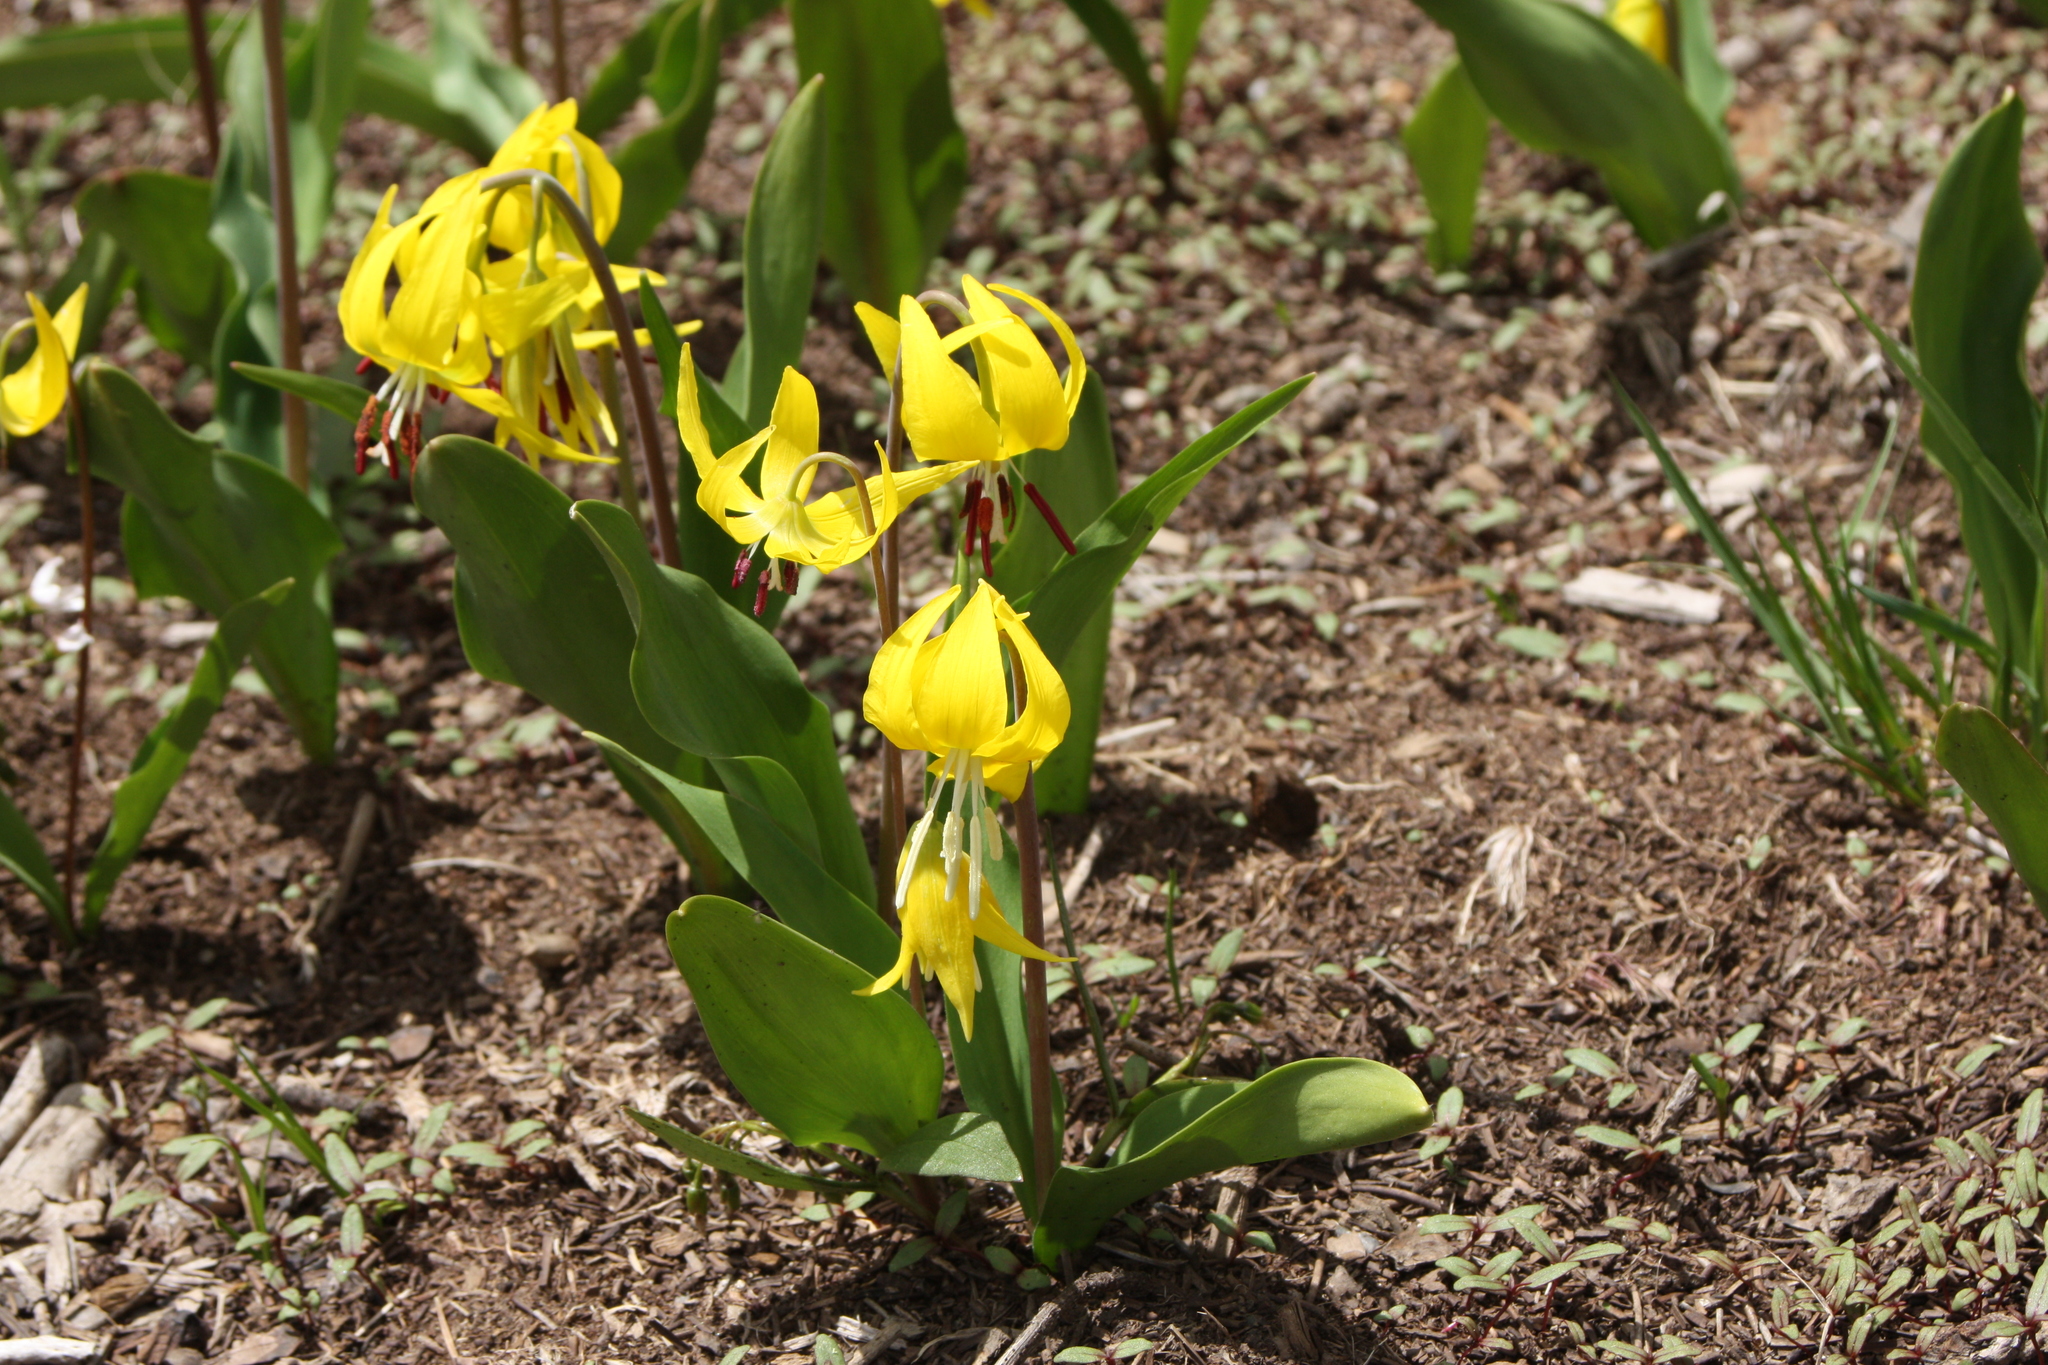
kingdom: Plantae
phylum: Tracheophyta
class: Liliopsida
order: Liliales
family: Liliaceae
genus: Erythronium
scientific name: Erythronium grandiflorum
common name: Avalanche-lily
